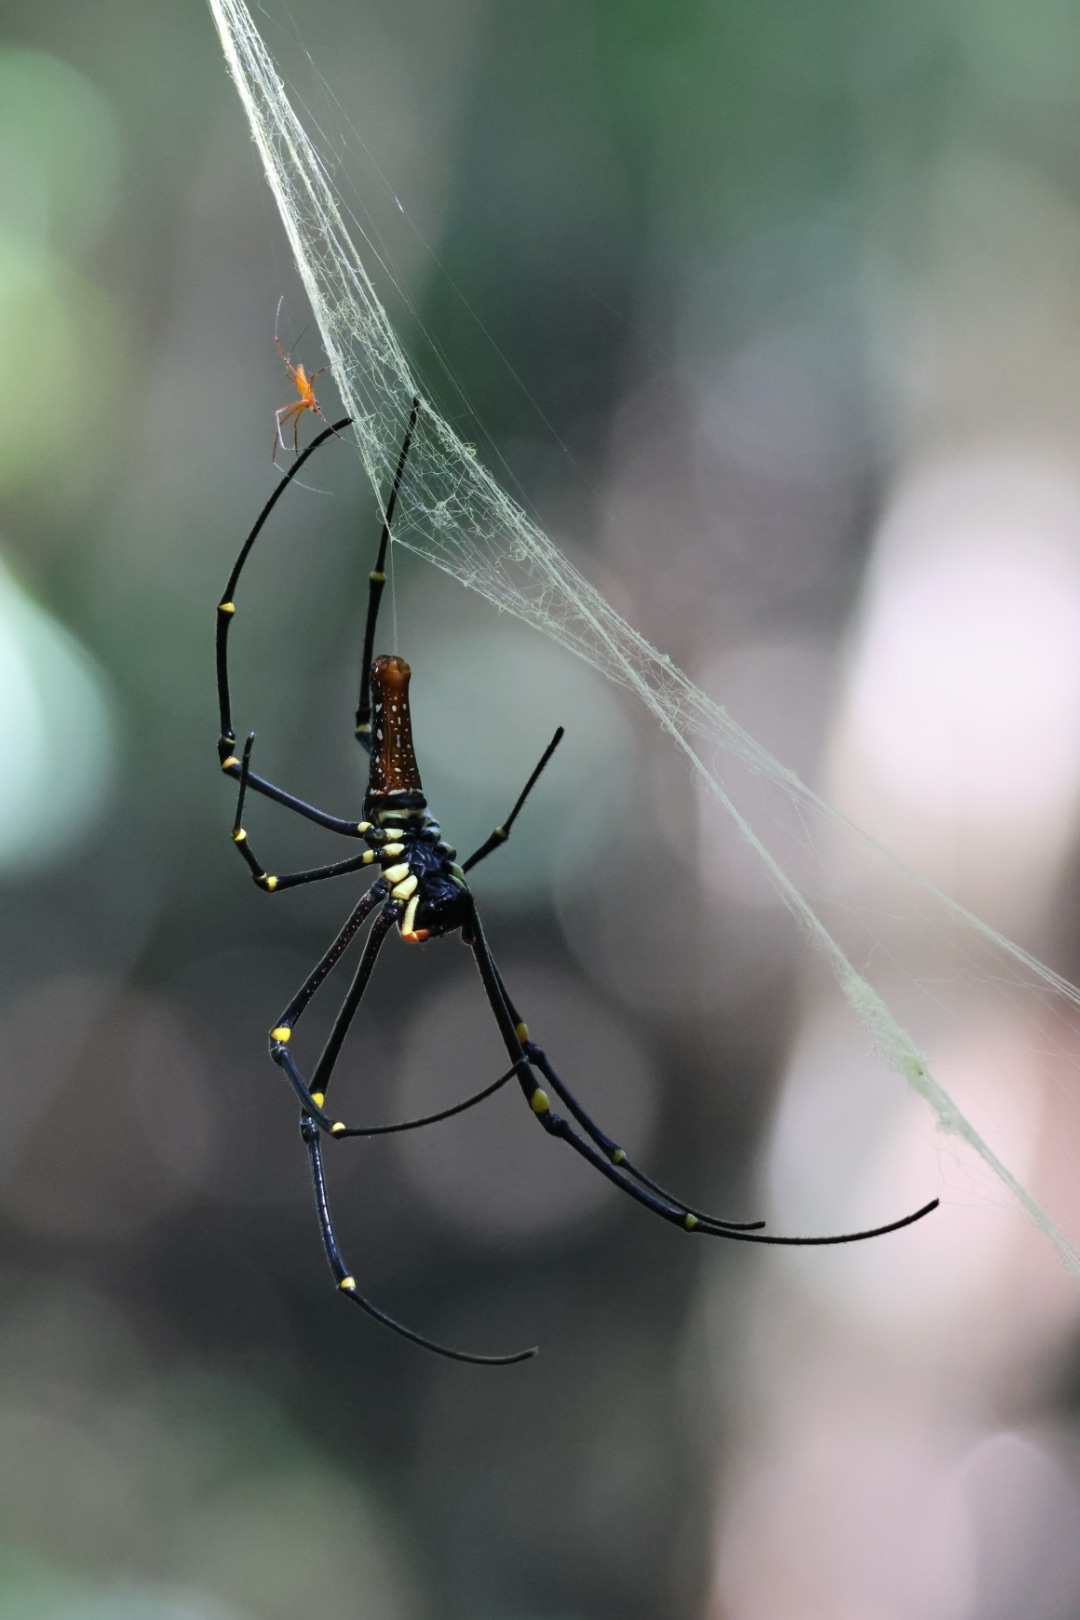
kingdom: Animalia
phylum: Arthropoda
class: Arachnida
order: Araneae
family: Araneidae
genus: Nephila
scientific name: Nephila pilipes
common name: Giant golden orb weaver
